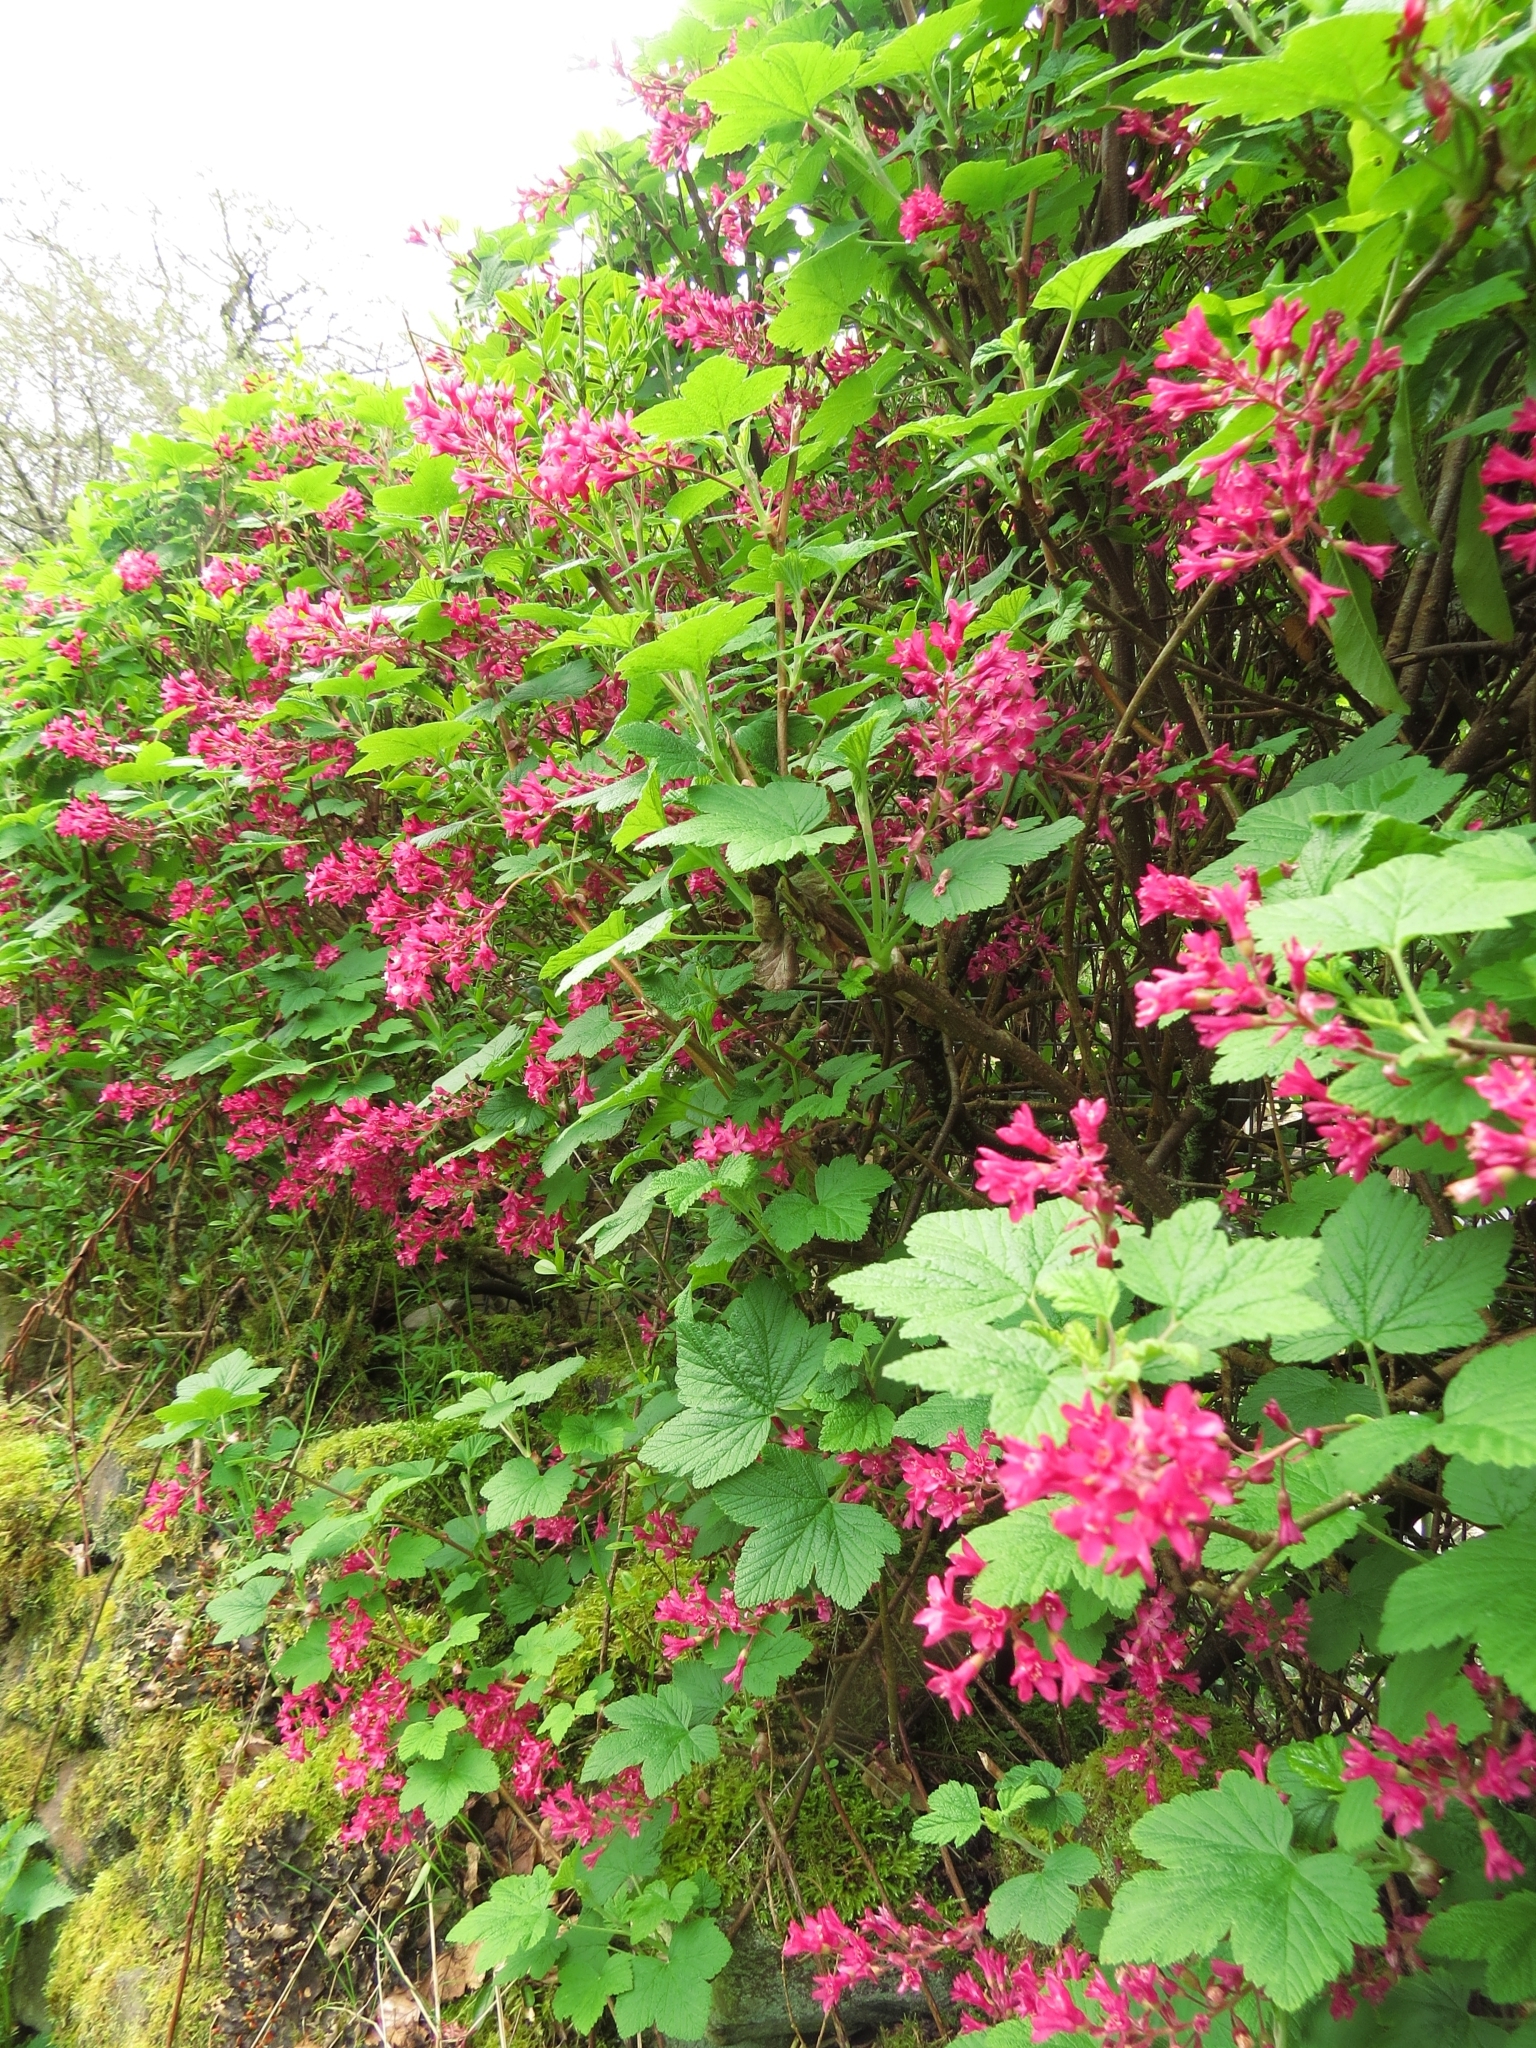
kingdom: Plantae
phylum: Tracheophyta
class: Magnoliopsida
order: Saxifragales
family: Grossulariaceae
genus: Ribes
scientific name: Ribes sanguineum
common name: Flowering currant
